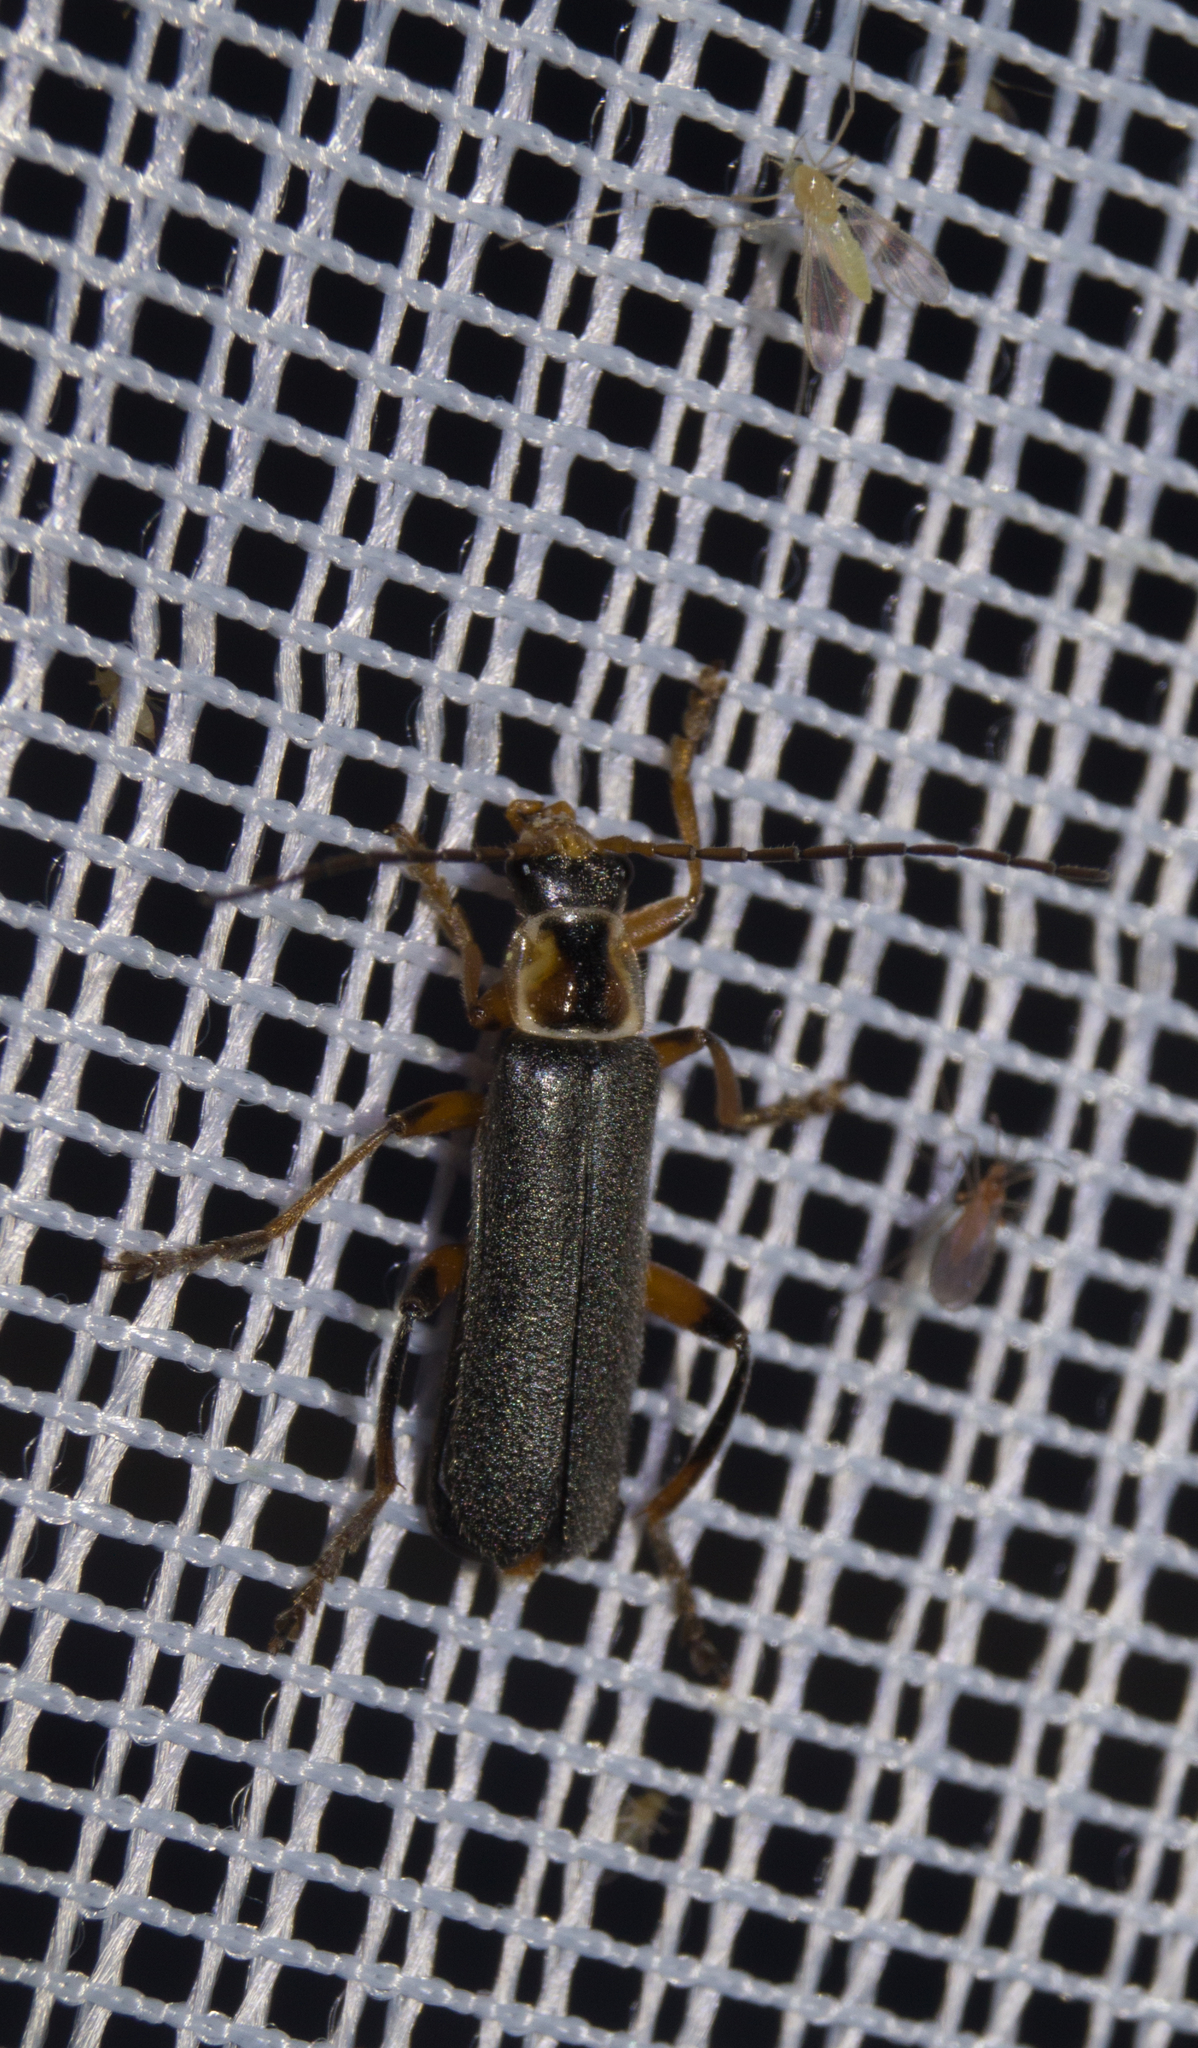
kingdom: Animalia
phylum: Arthropoda
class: Insecta
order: Coleoptera
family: Cantharidae
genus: Cantharis
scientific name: Cantharis nigricans
